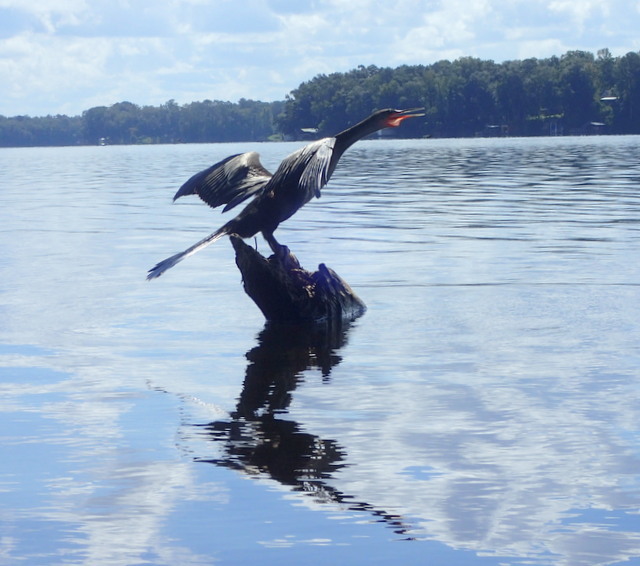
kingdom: Animalia
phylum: Chordata
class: Aves
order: Suliformes
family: Anhingidae
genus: Anhinga
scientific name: Anhinga anhinga
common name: Anhinga
